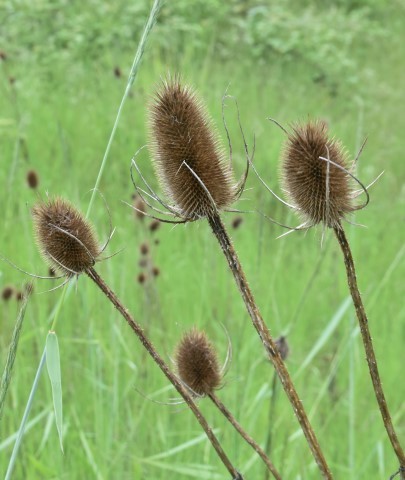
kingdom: Plantae
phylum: Tracheophyta
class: Magnoliopsida
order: Dipsacales
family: Caprifoliaceae
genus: Dipsacus
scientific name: Dipsacus fullonum
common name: Teasel
